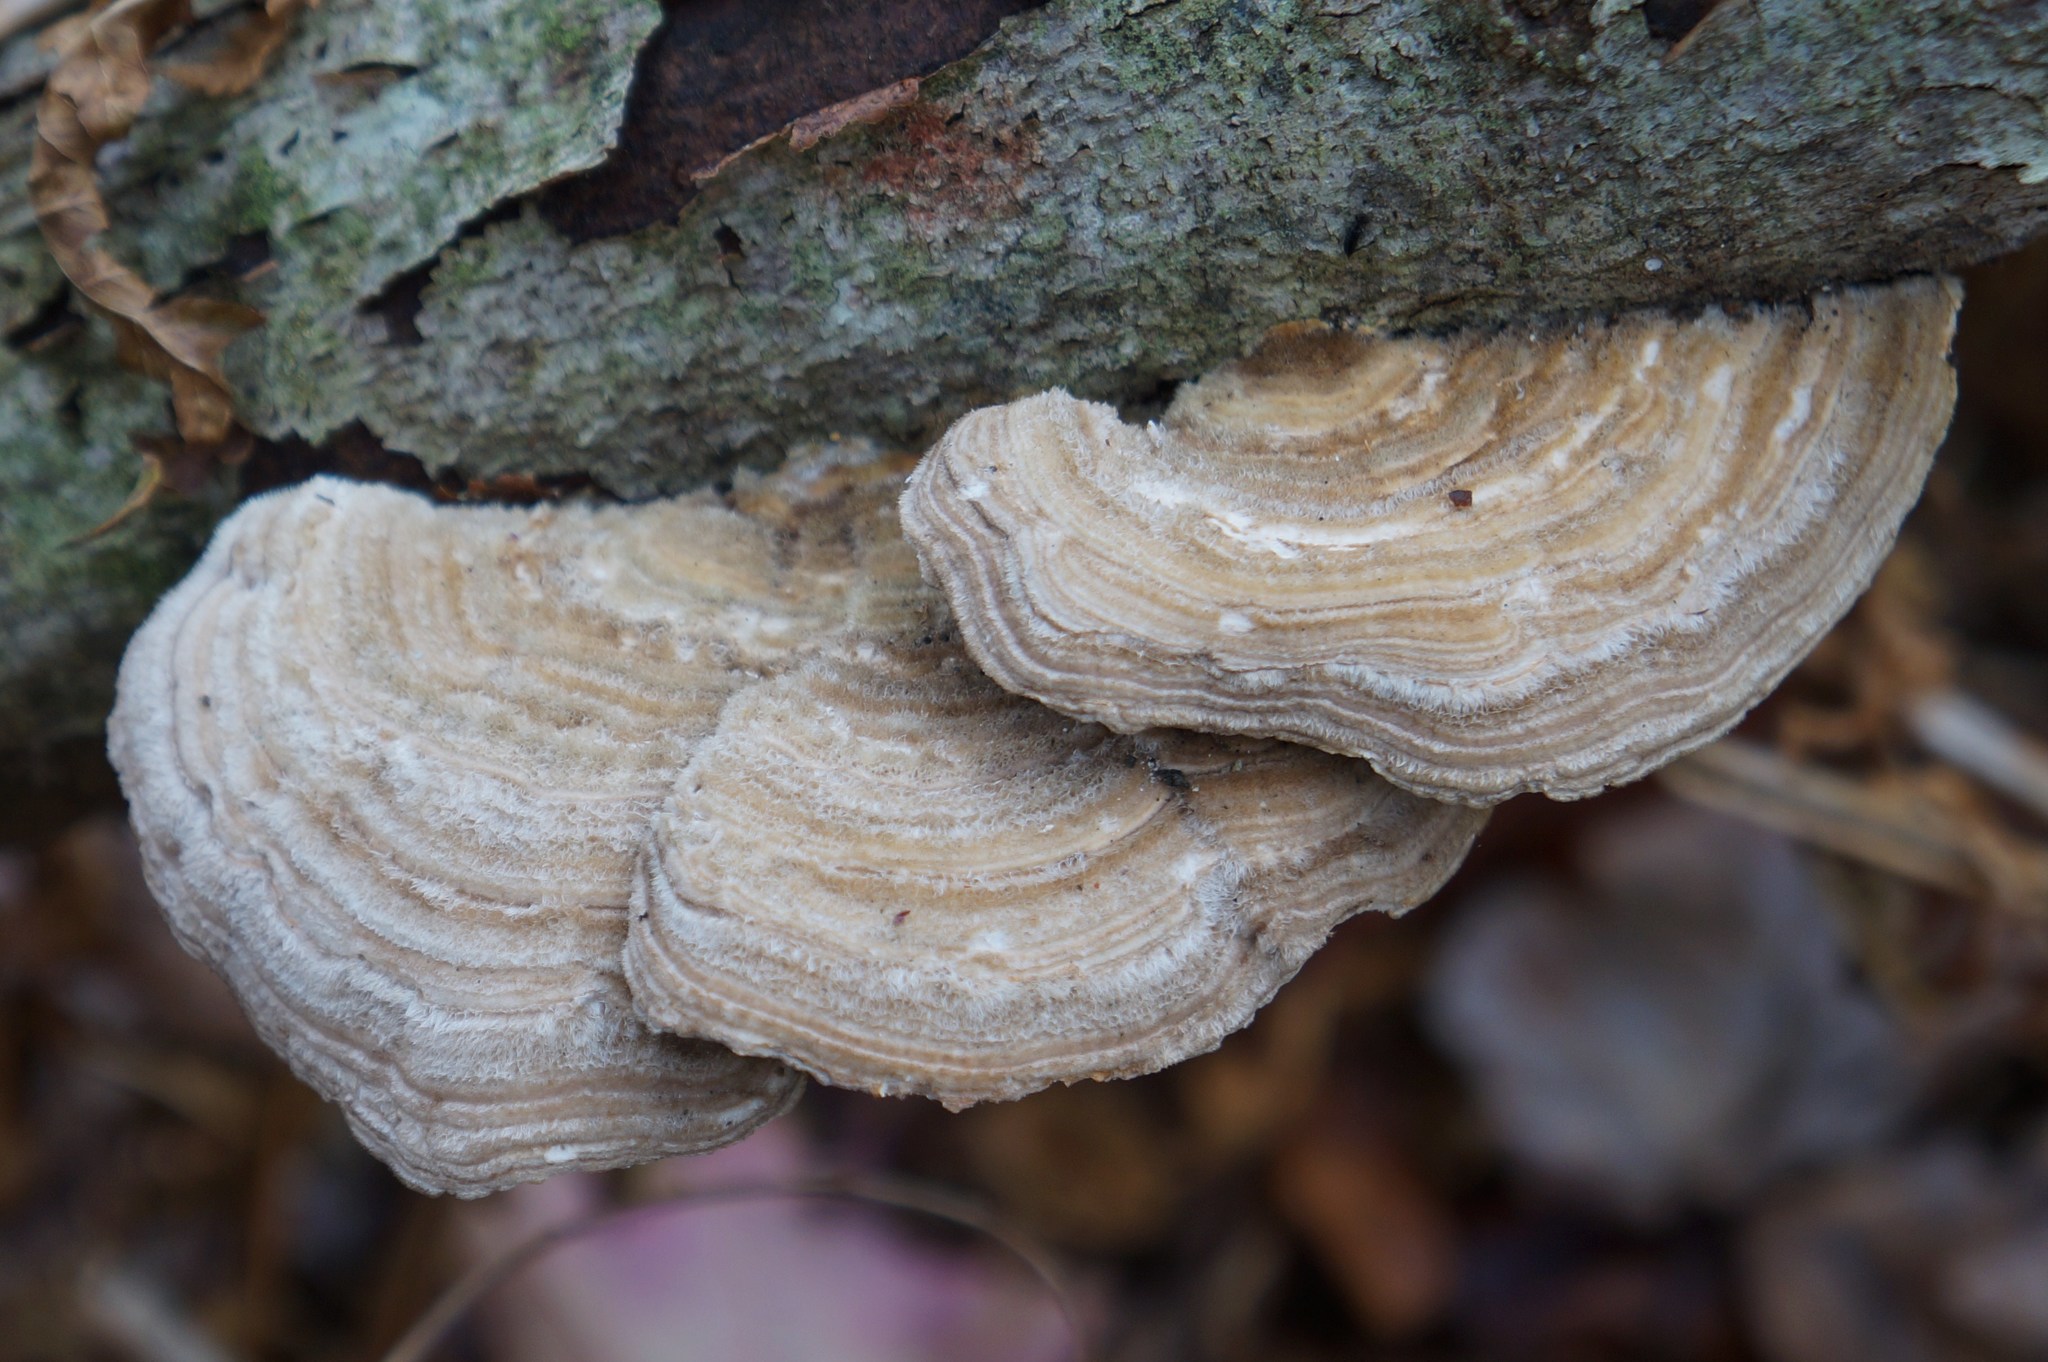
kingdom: Fungi
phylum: Basidiomycota
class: Agaricomycetes
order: Polyporales
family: Polyporaceae
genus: Lenzites
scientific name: Lenzites betulinus
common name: Birch mazegill
